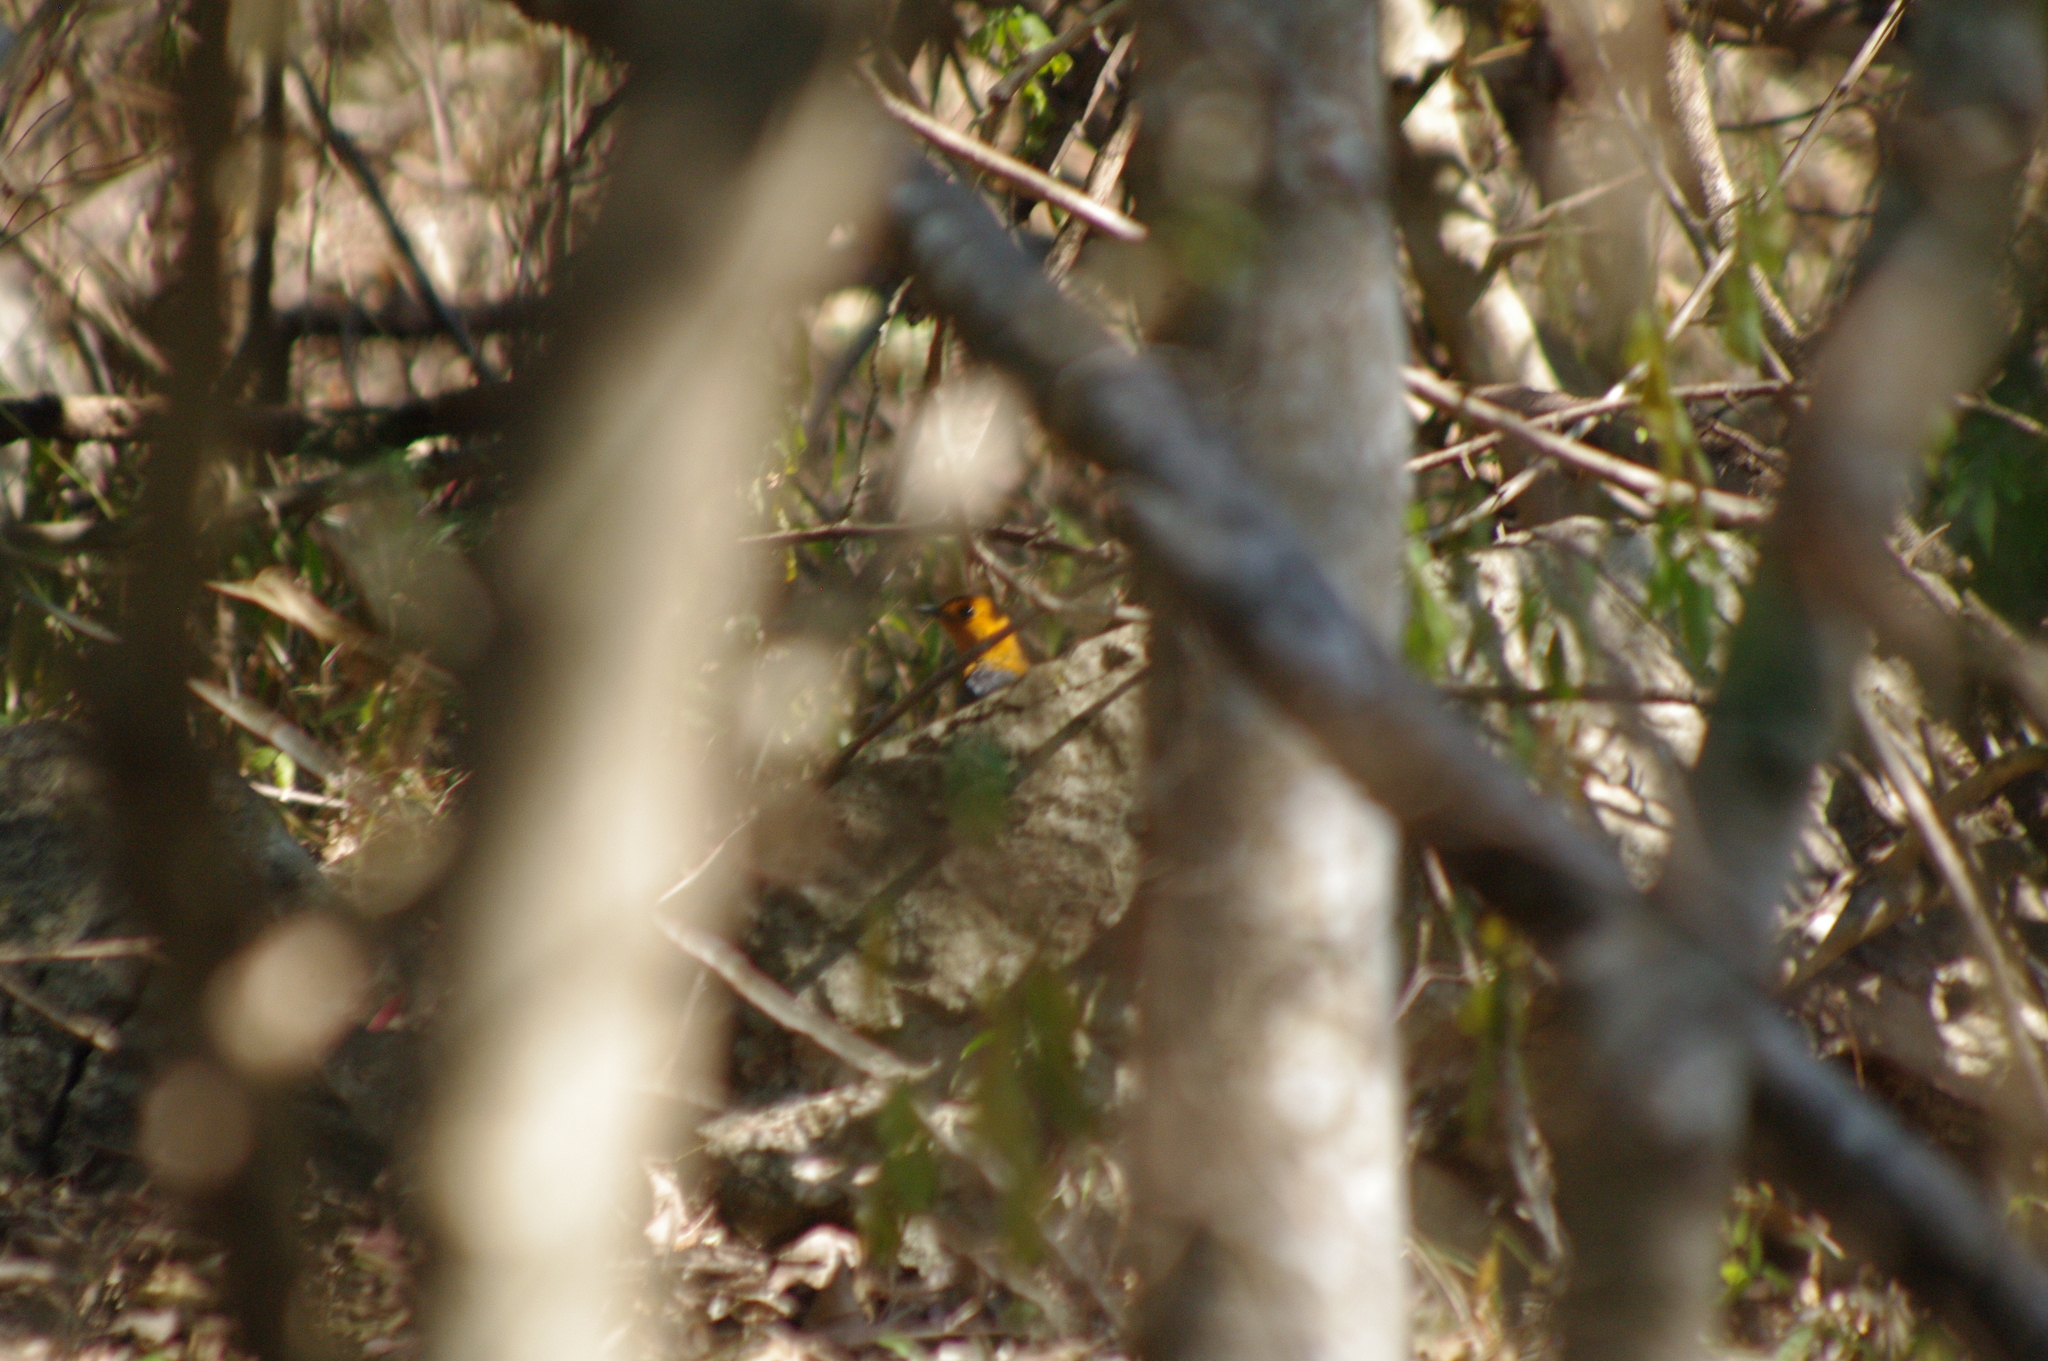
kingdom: Animalia
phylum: Chordata
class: Aves
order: Passeriformes
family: Muscicapidae
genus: Cossypha
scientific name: Cossypha natalensis
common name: Red-capped robin-chat
